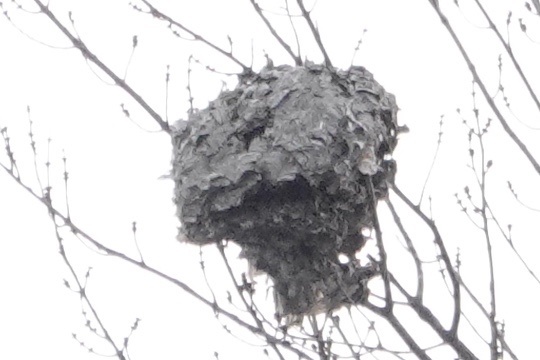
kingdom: Animalia
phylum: Arthropoda
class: Insecta
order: Hymenoptera
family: Vespidae
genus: Dolichovespula
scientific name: Dolichovespula
